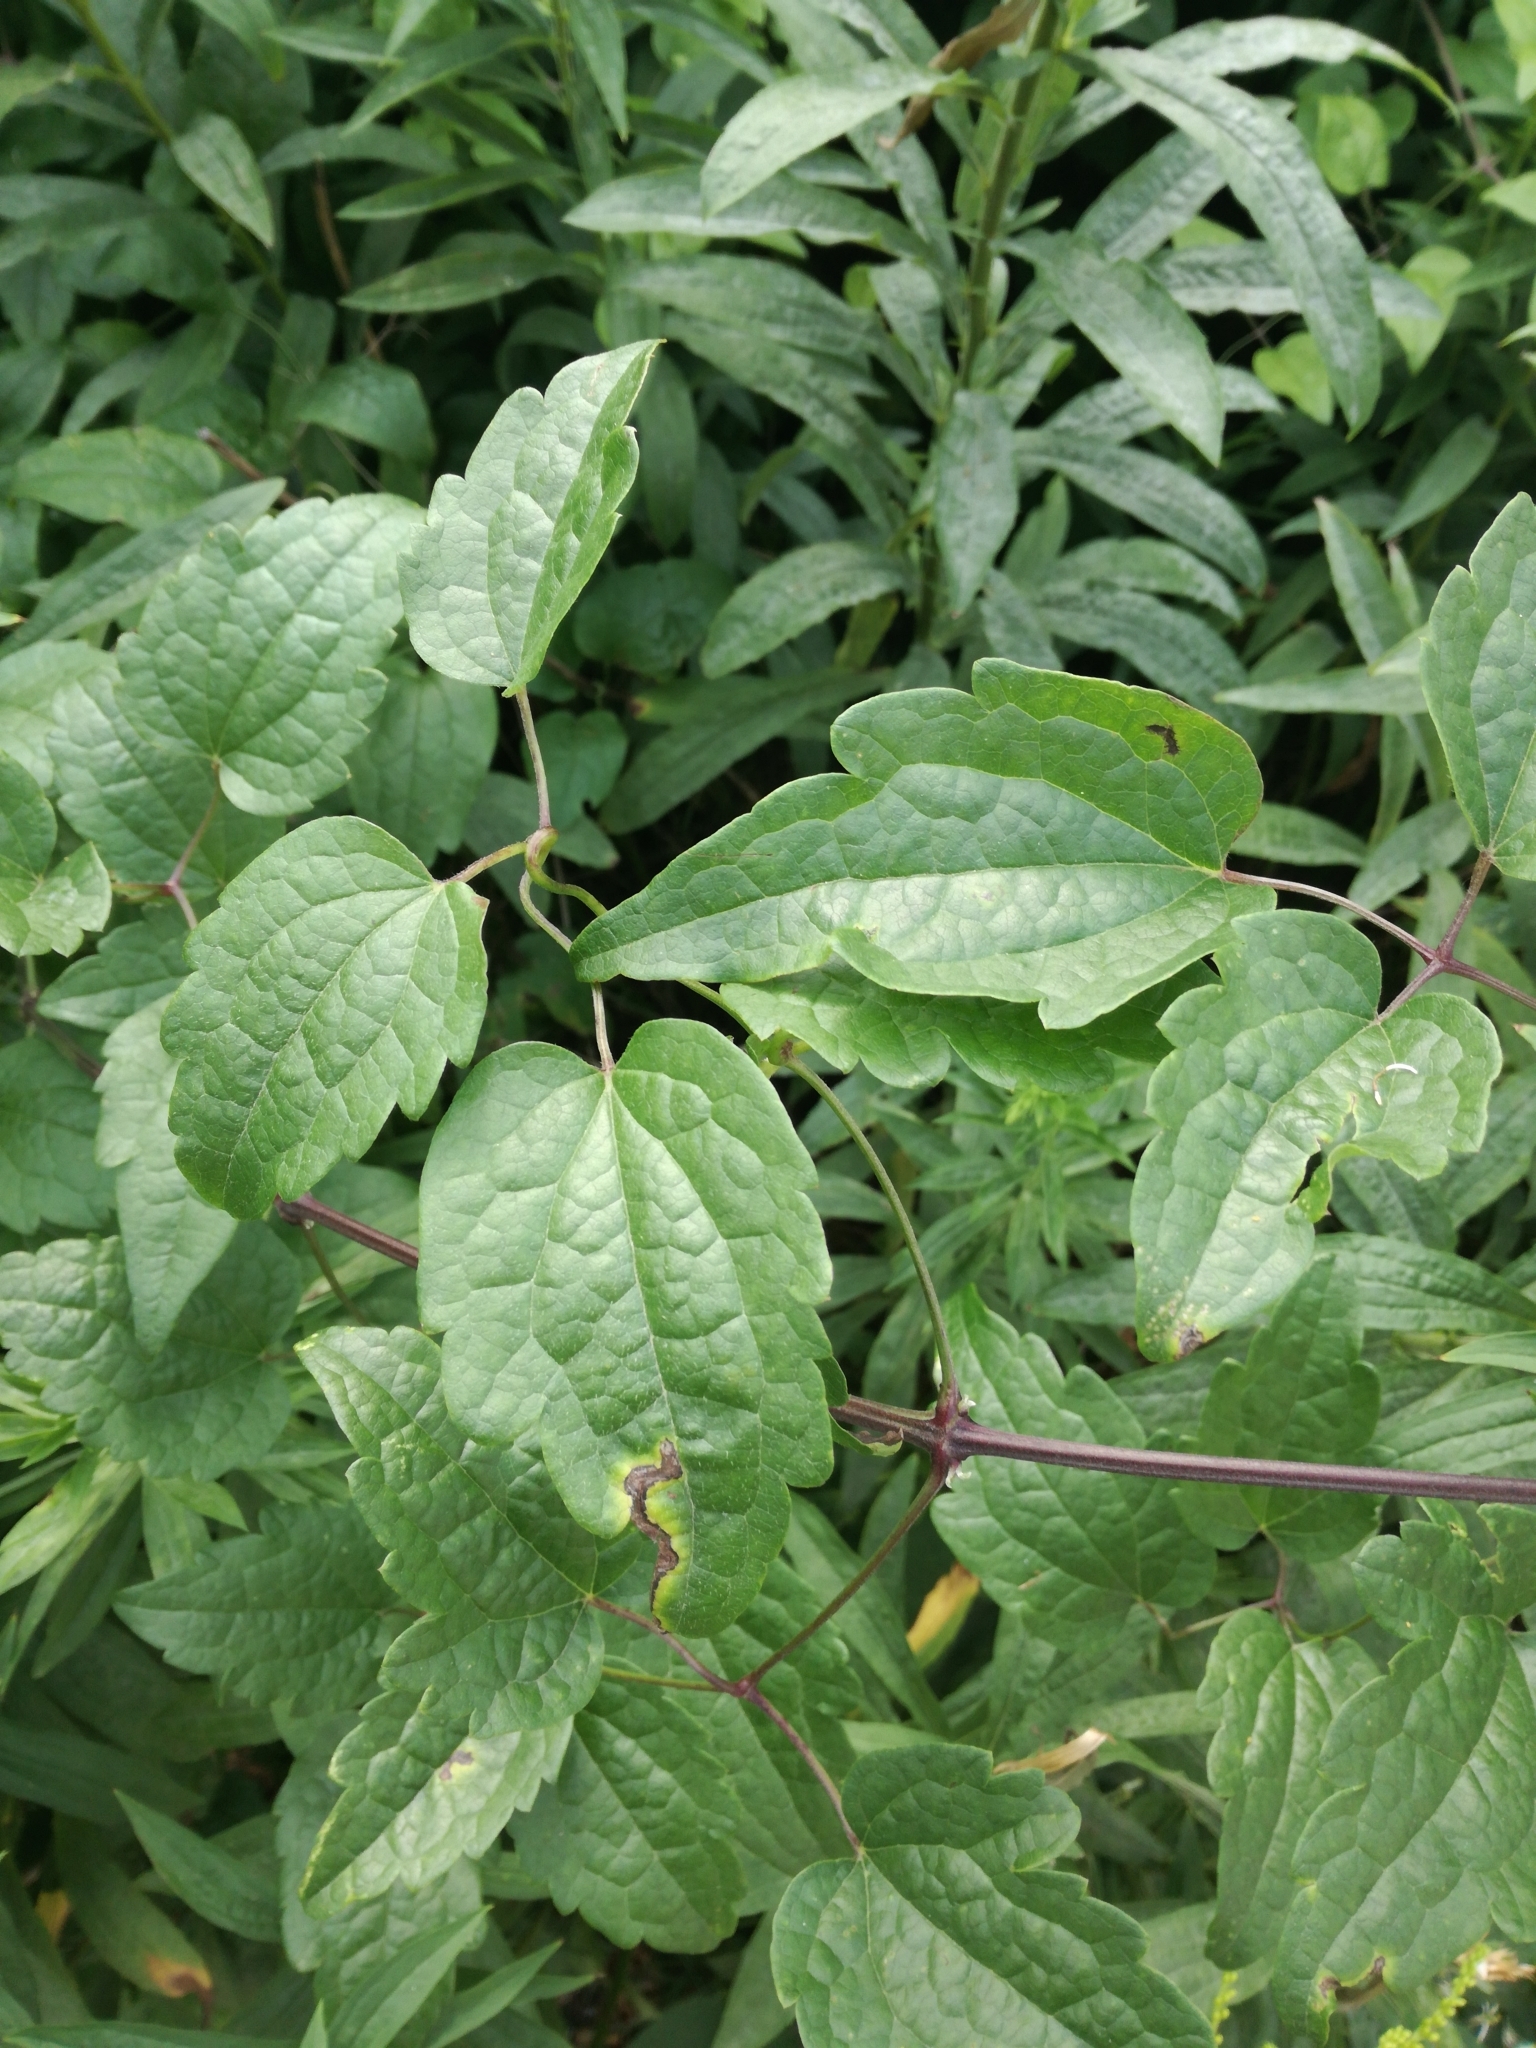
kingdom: Plantae
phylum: Tracheophyta
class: Magnoliopsida
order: Ranunculales
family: Ranunculaceae
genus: Clematis
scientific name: Clematis vitalba
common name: Evergreen clematis
